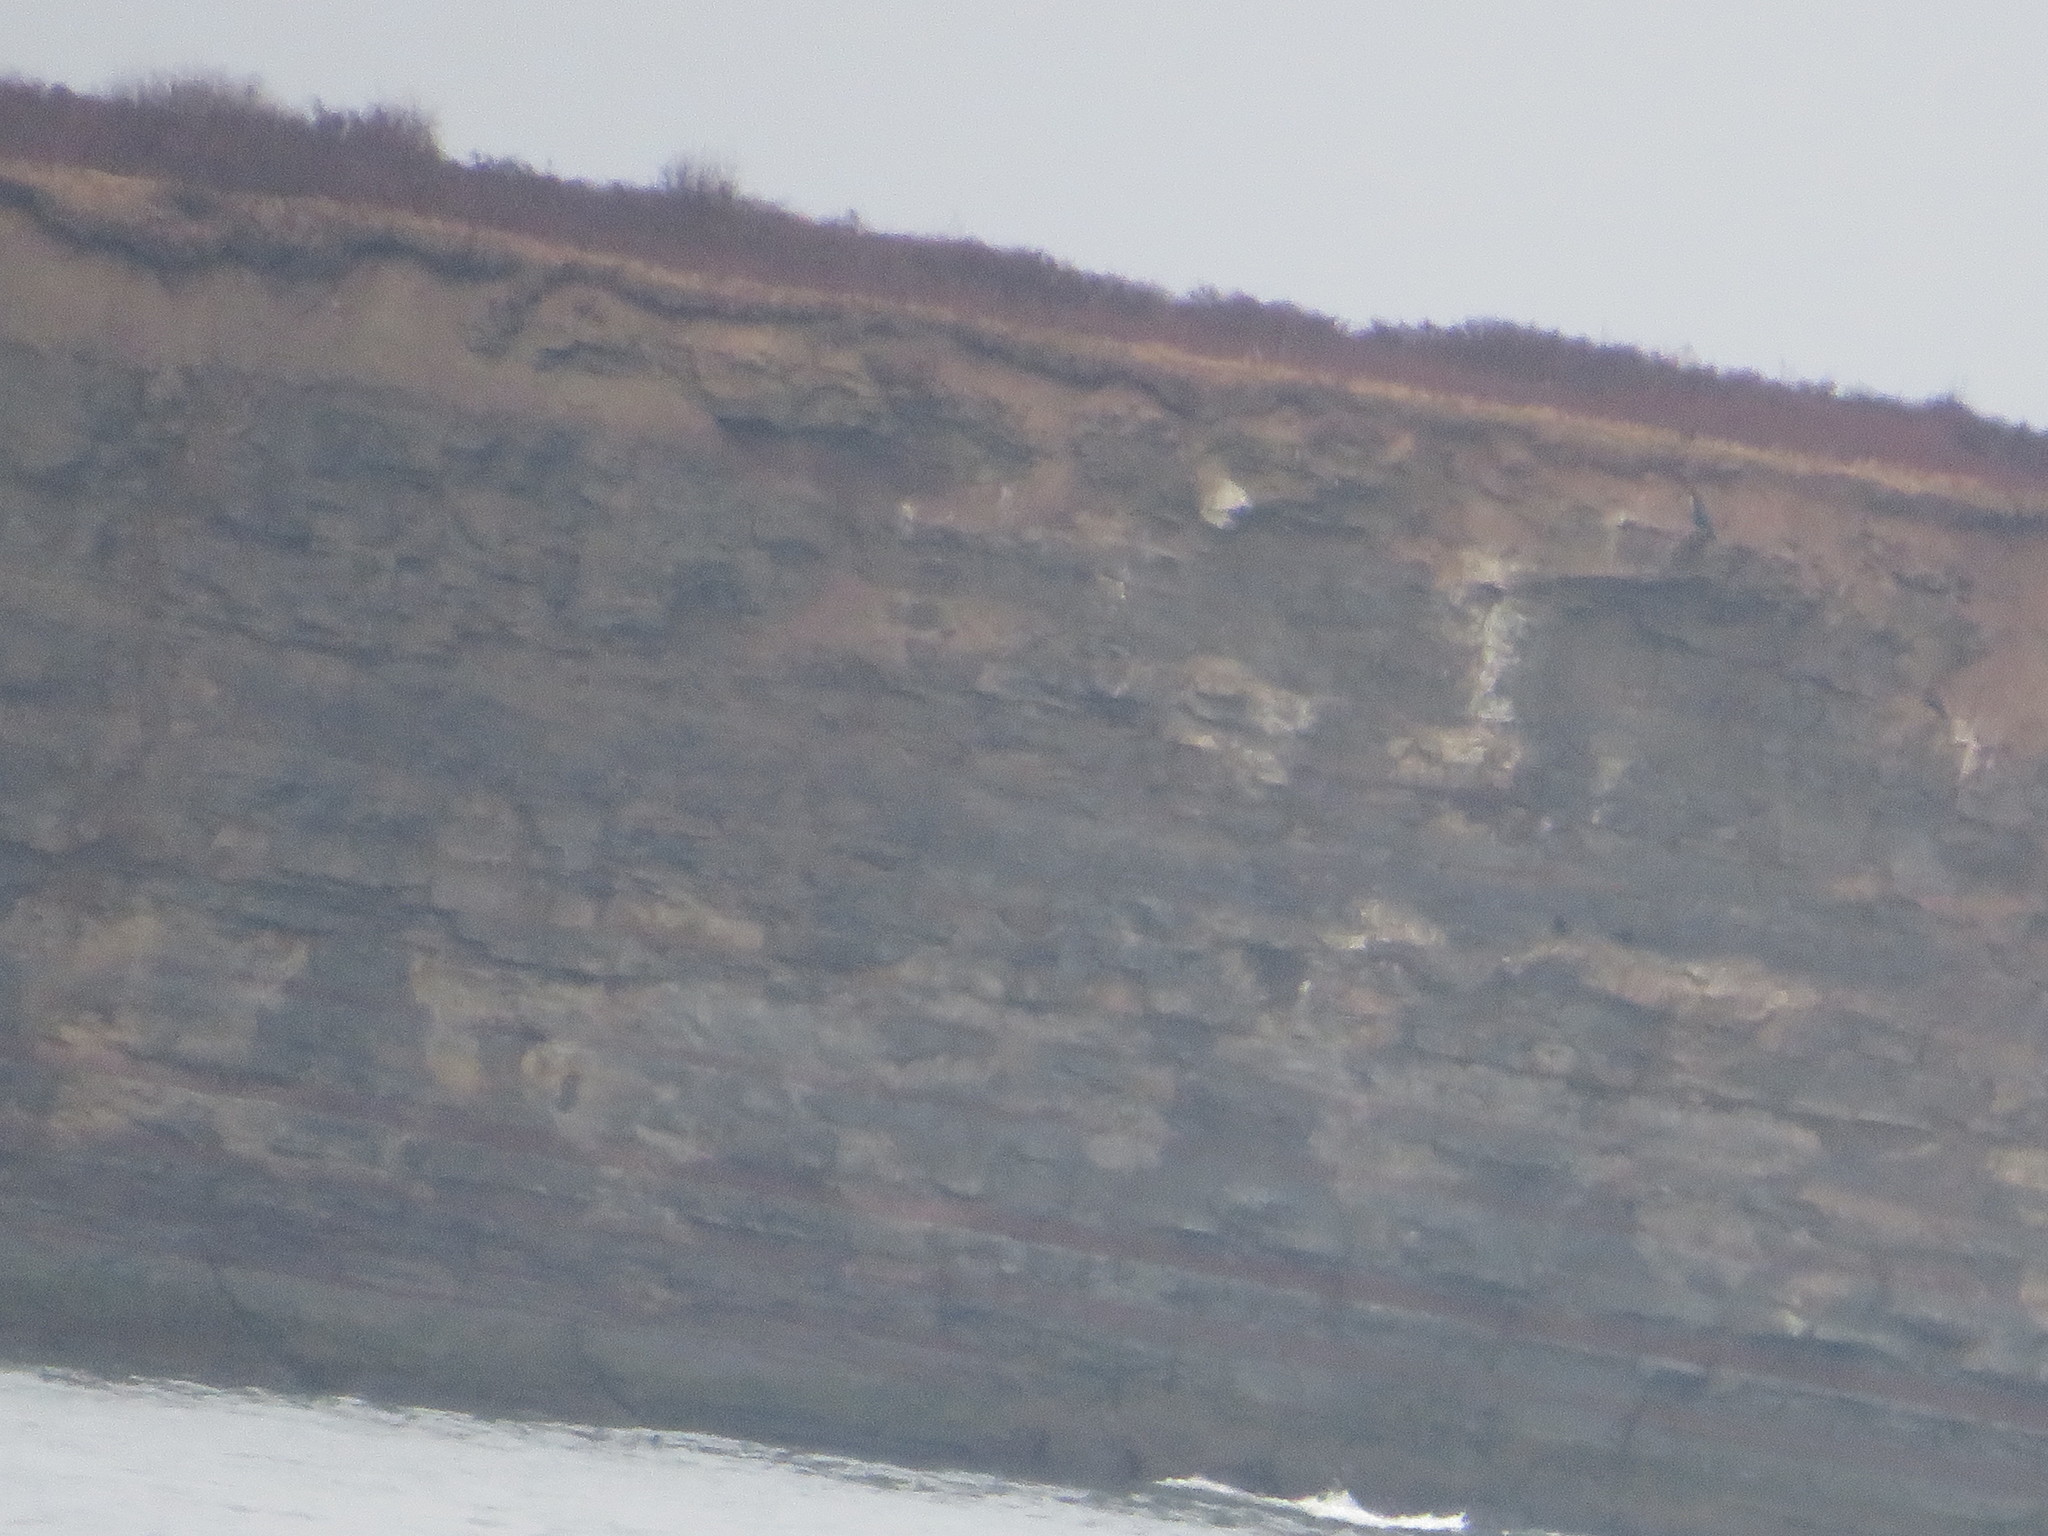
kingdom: Animalia
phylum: Chordata
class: Aves
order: Suliformes
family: Phalacrocoracidae
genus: Phalacrocorax
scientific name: Phalacrocorax carbo
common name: Great cormorant
